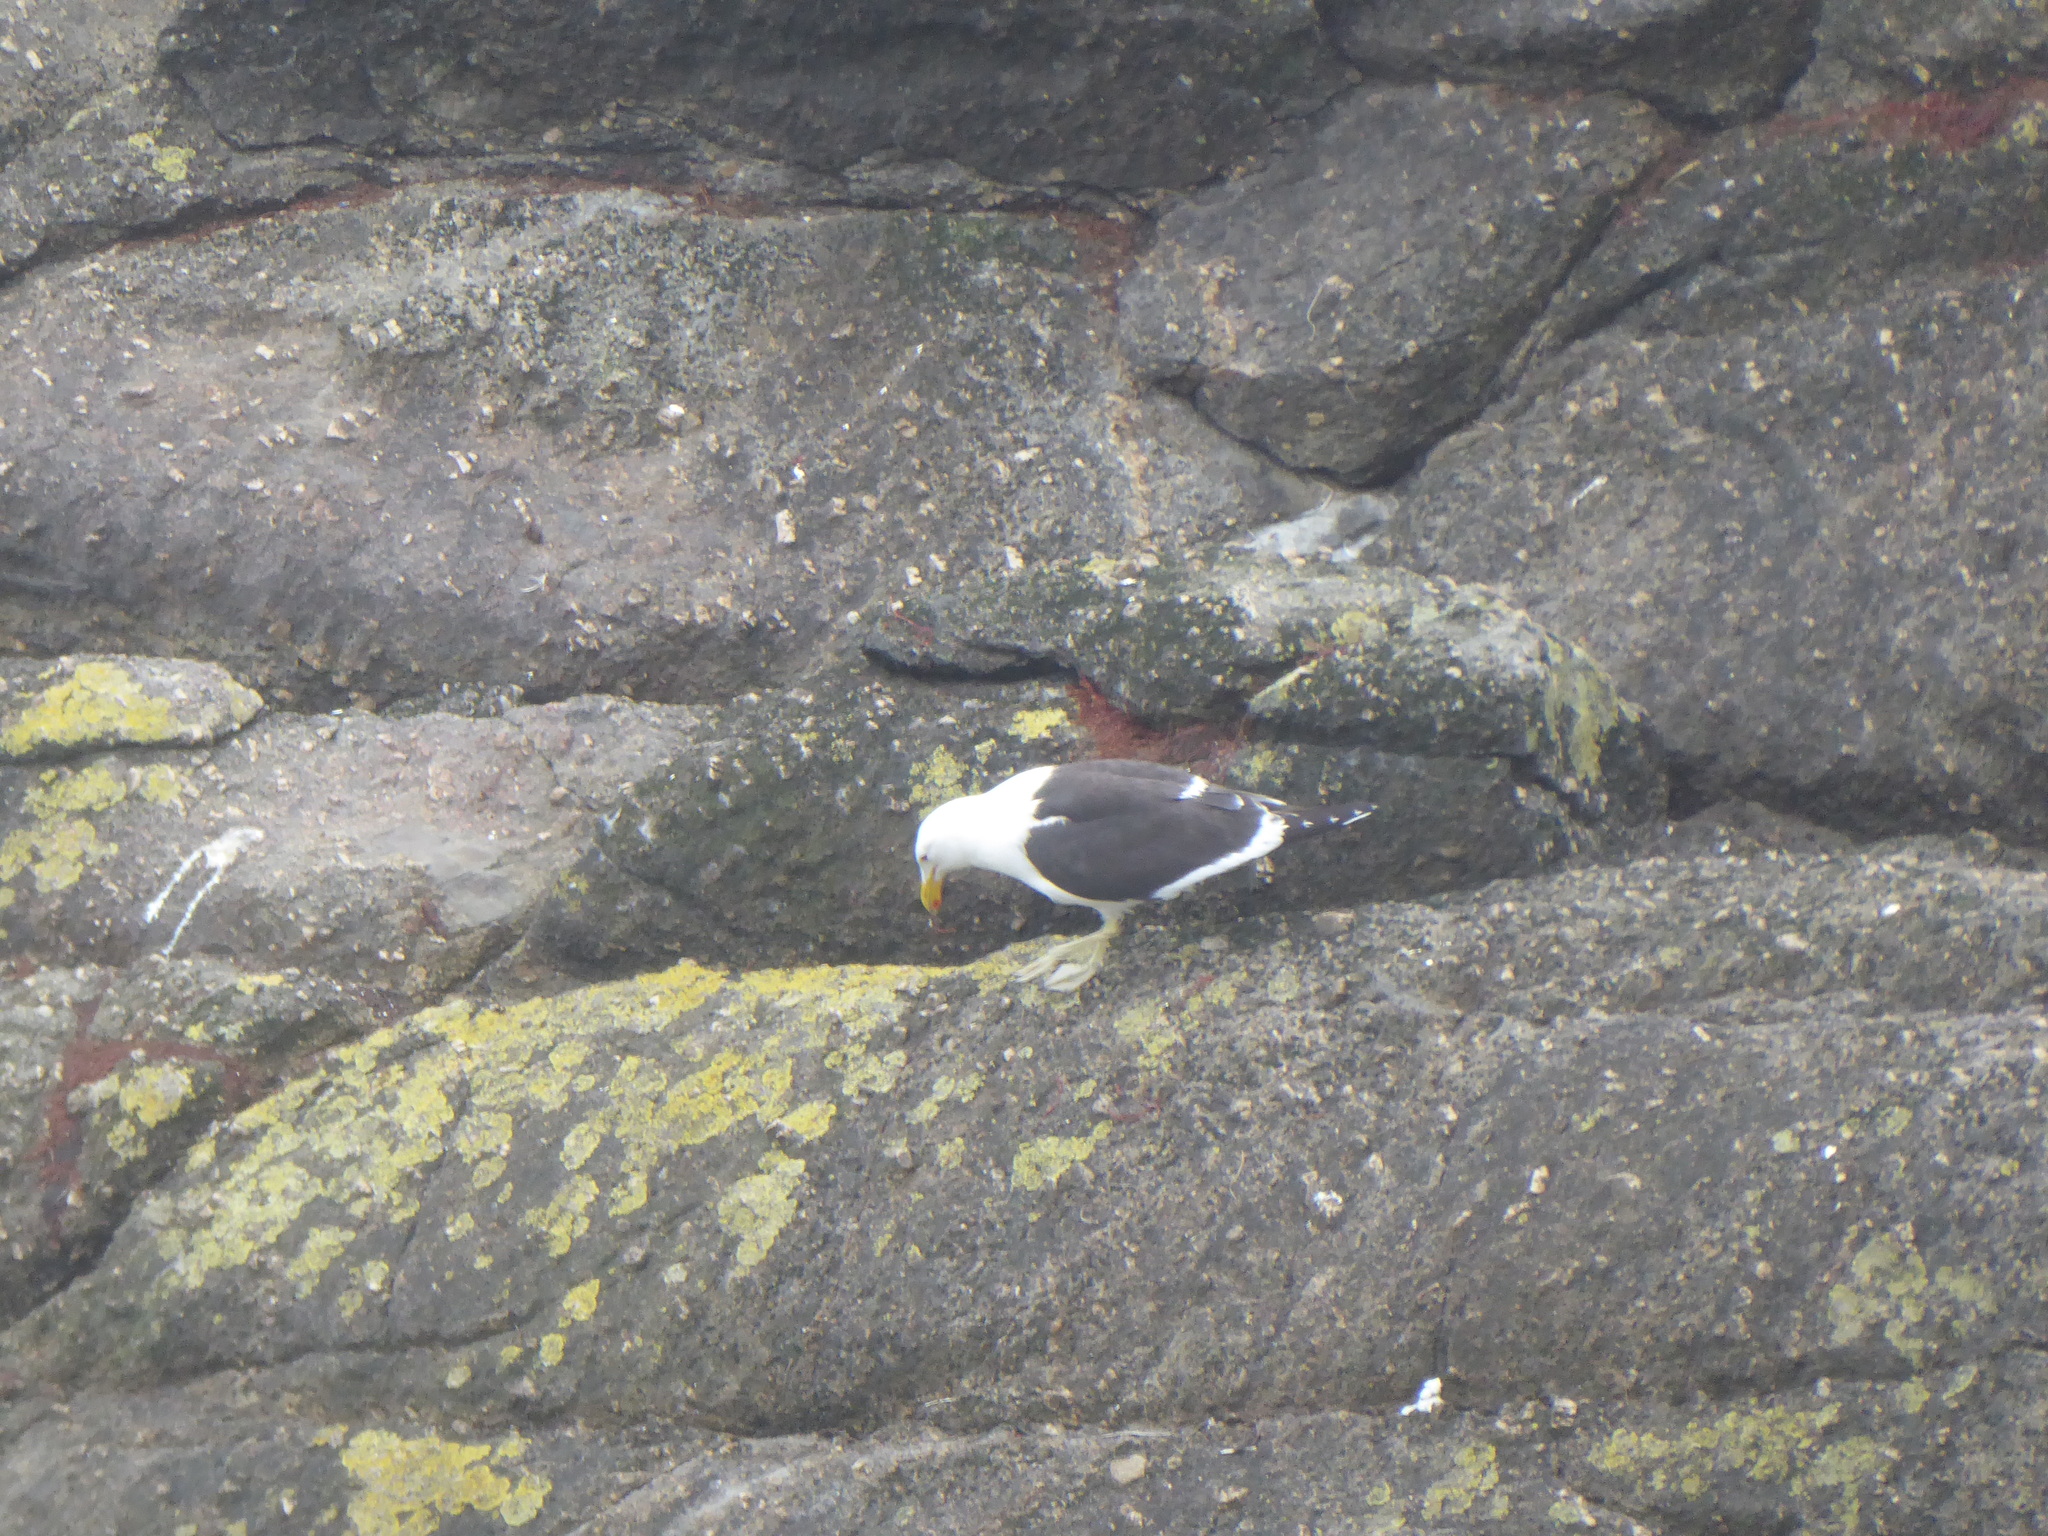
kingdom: Animalia
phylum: Chordata
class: Aves
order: Charadriiformes
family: Laridae
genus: Larus
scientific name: Larus dominicanus
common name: Kelp gull
